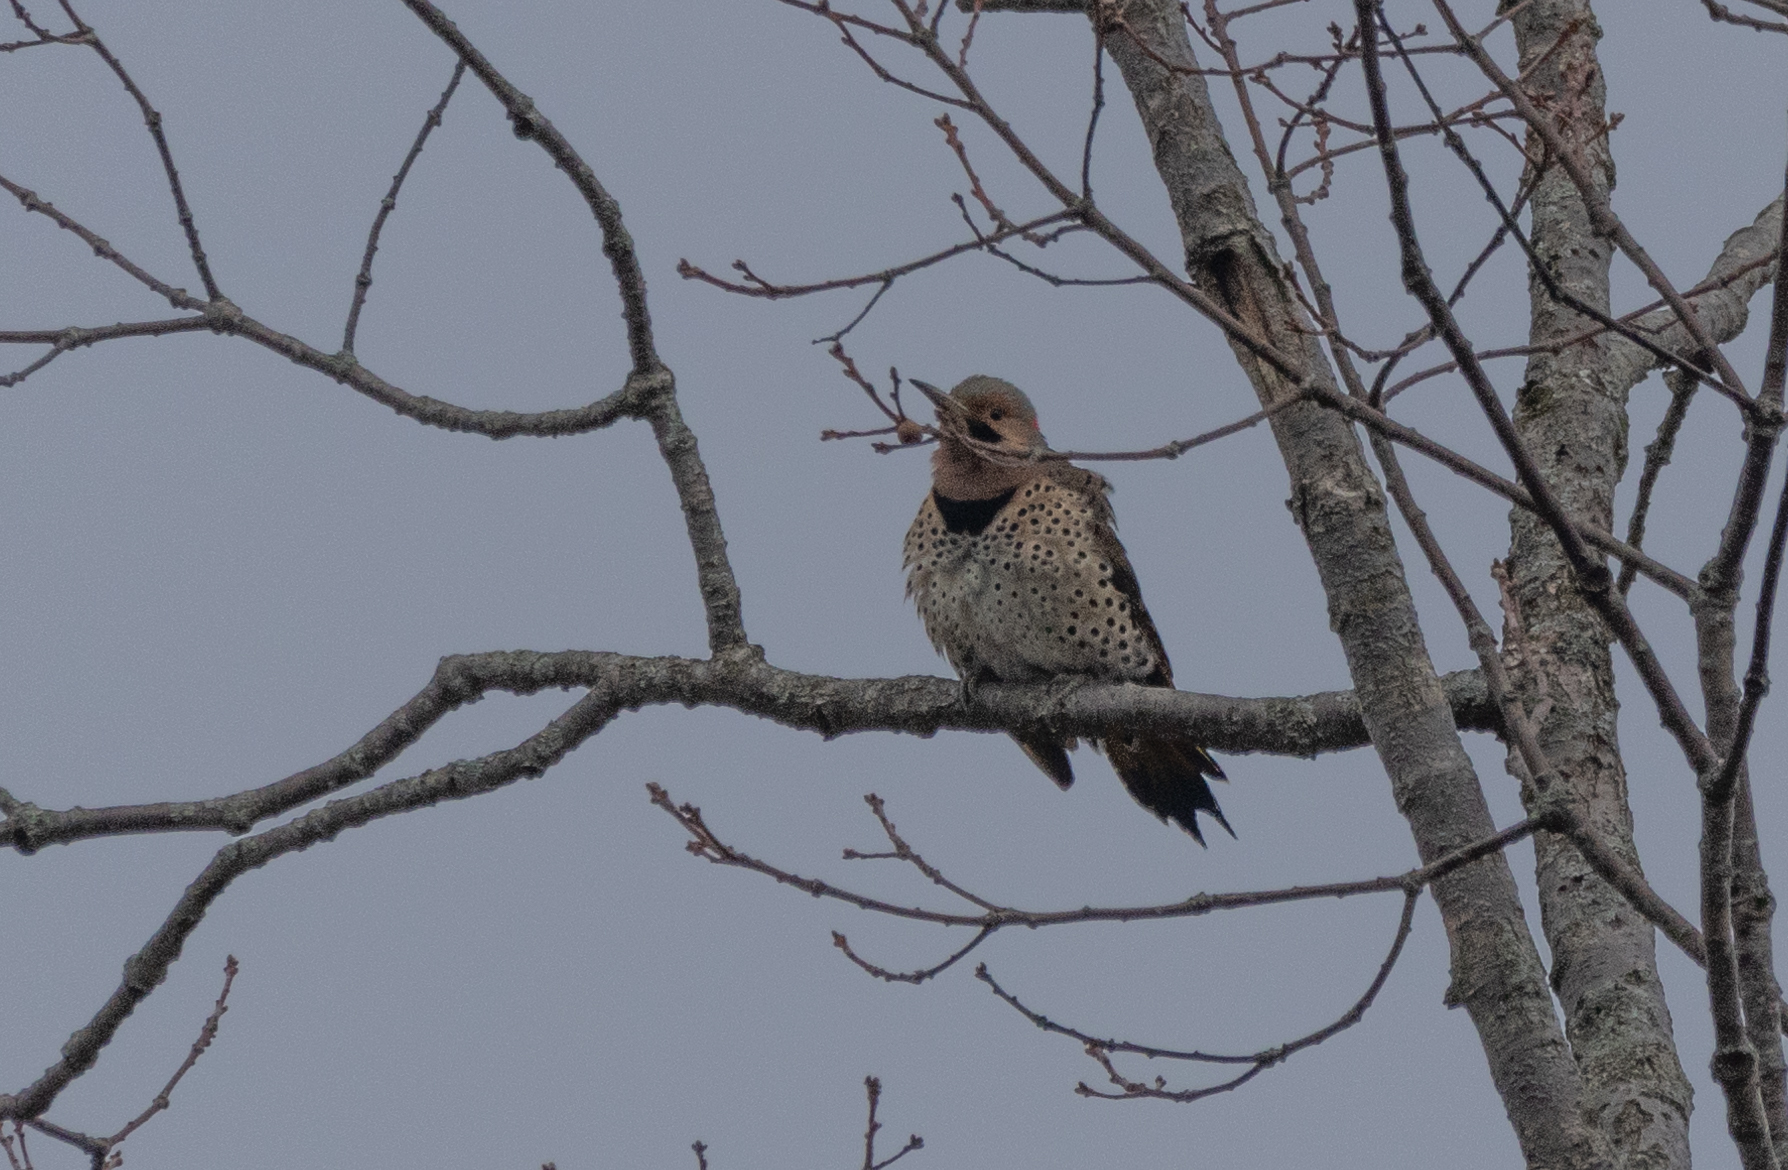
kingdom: Animalia
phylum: Chordata
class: Aves
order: Piciformes
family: Picidae
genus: Colaptes
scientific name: Colaptes auratus
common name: Northern flicker
